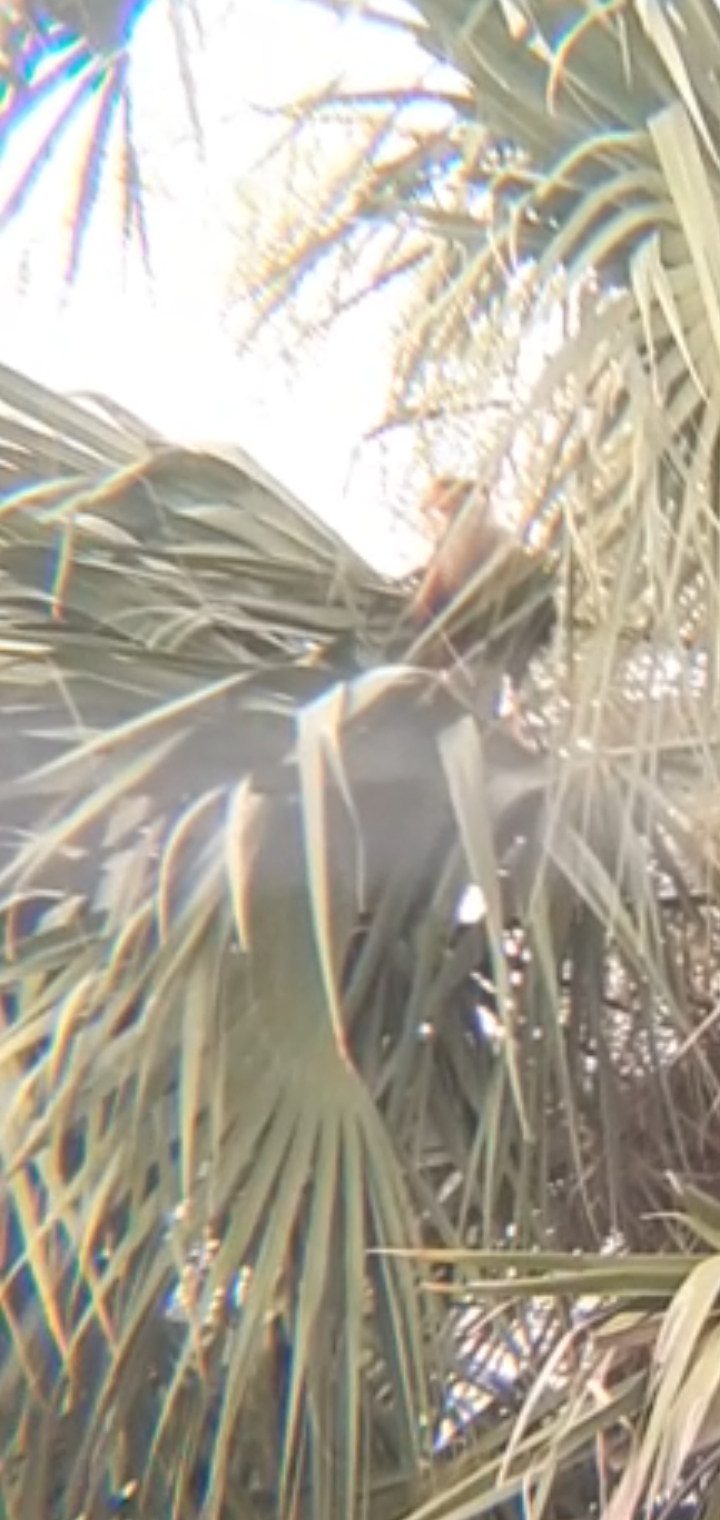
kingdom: Animalia
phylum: Chordata
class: Aves
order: Falconiformes
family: Falconidae
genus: Caracara
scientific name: Caracara plancus
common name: Southern caracara
